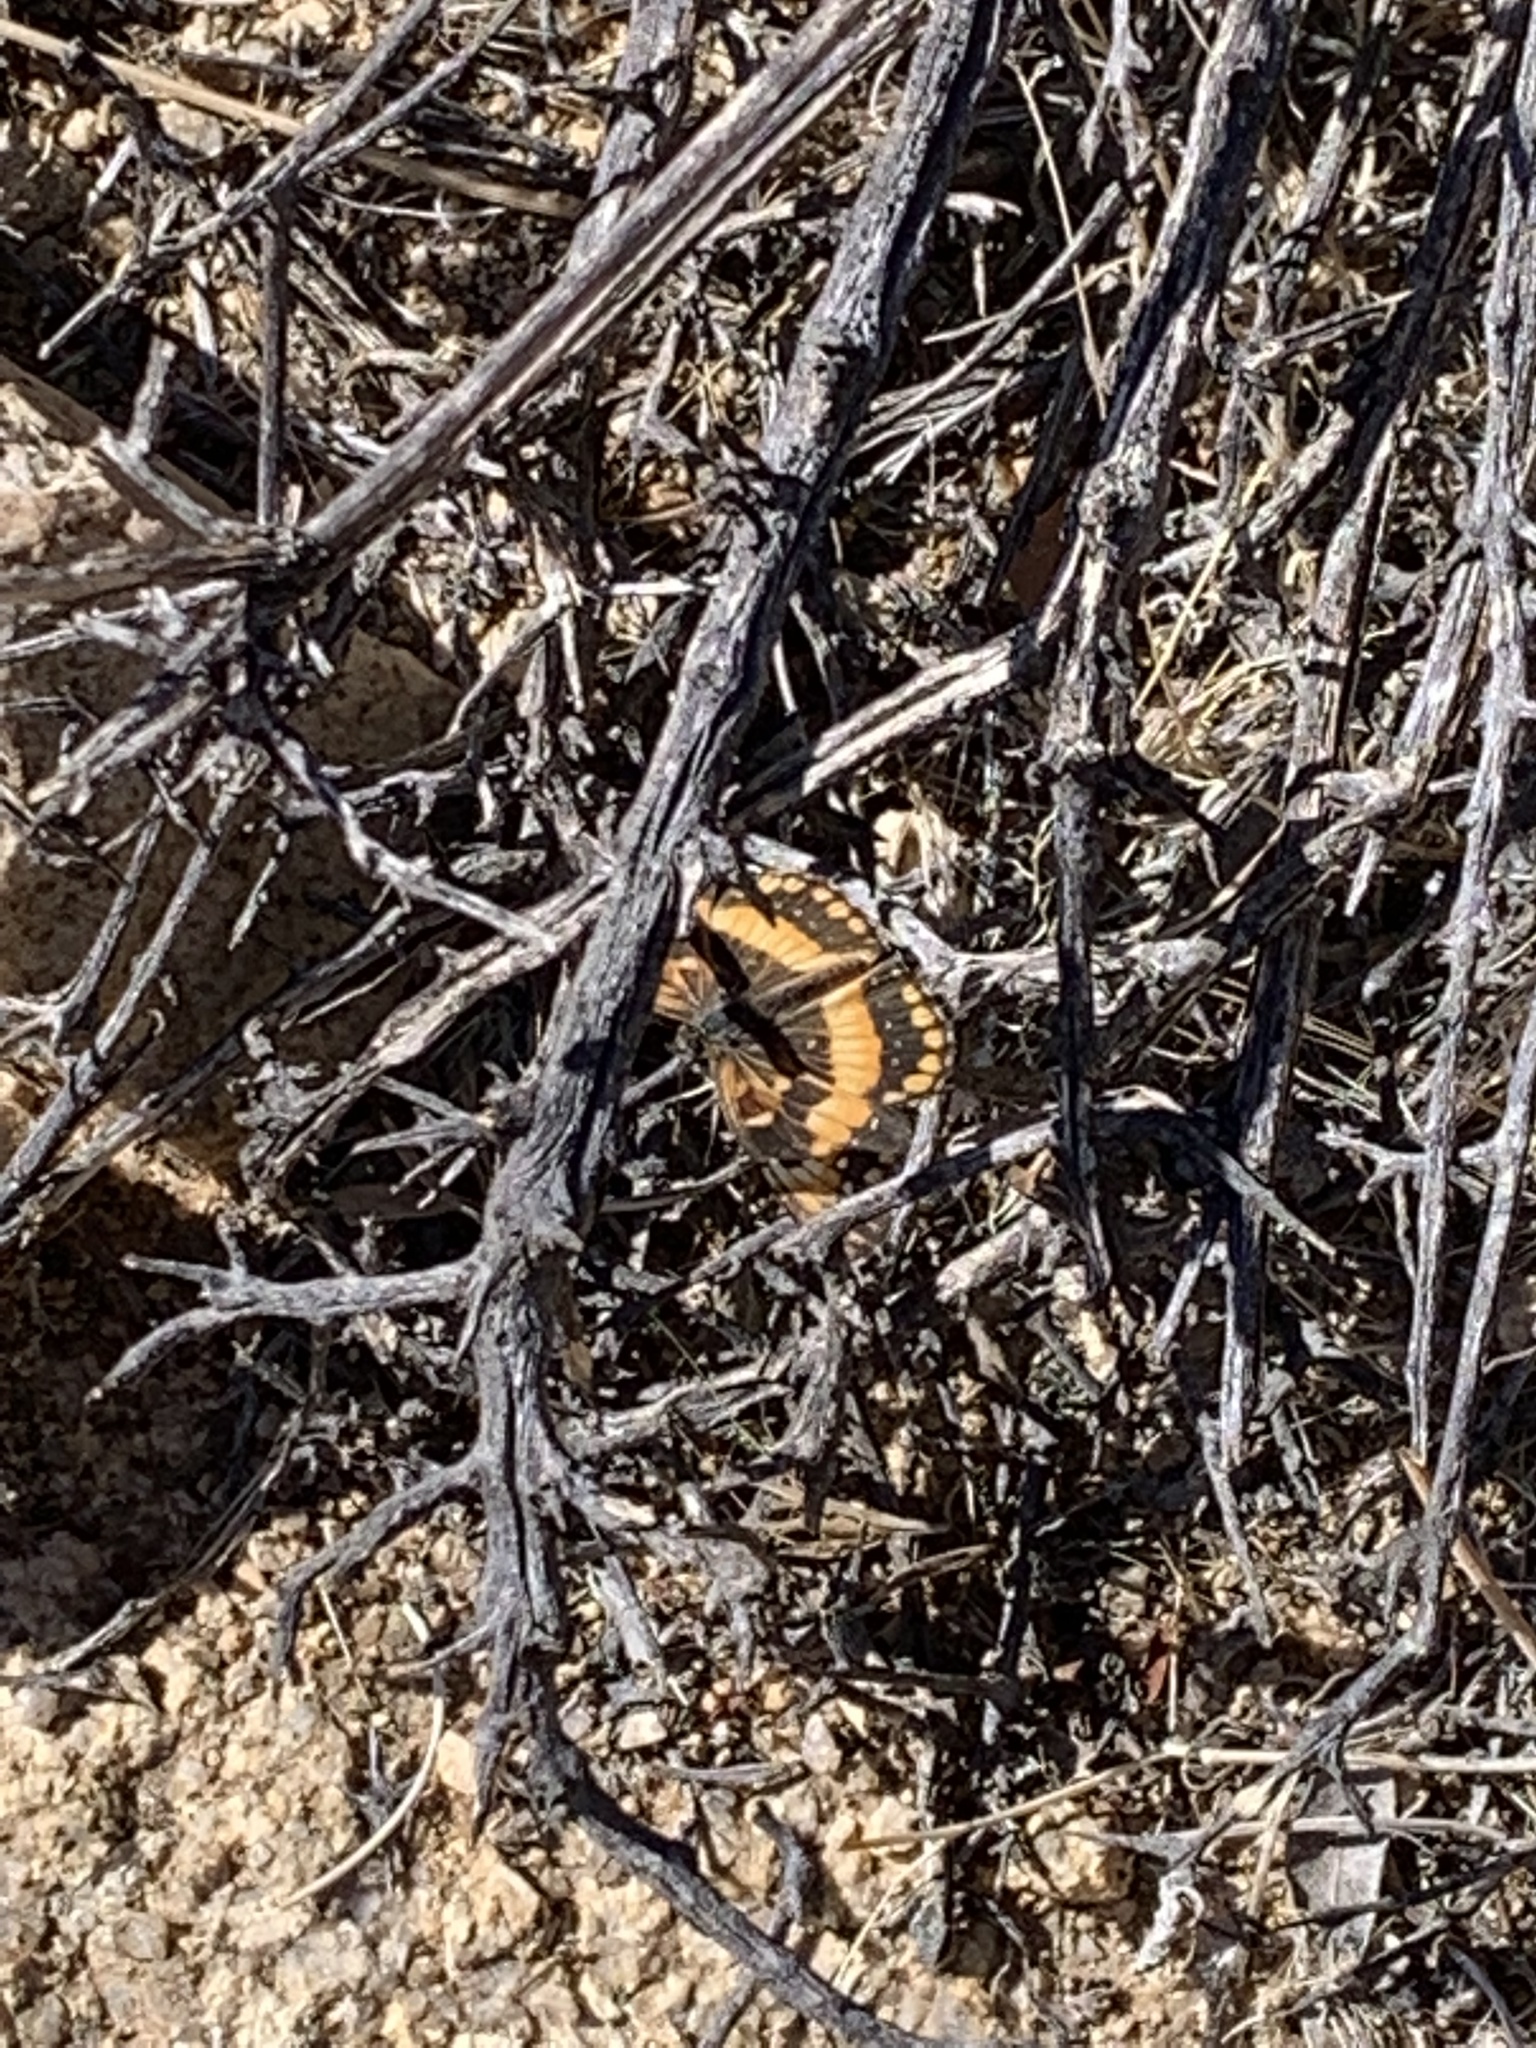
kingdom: Animalia
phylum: Arthropoda
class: Insecta
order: Lepidoptera
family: Nymphalidae
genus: Chlosyne
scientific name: Chlosyne californica
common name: California patch
